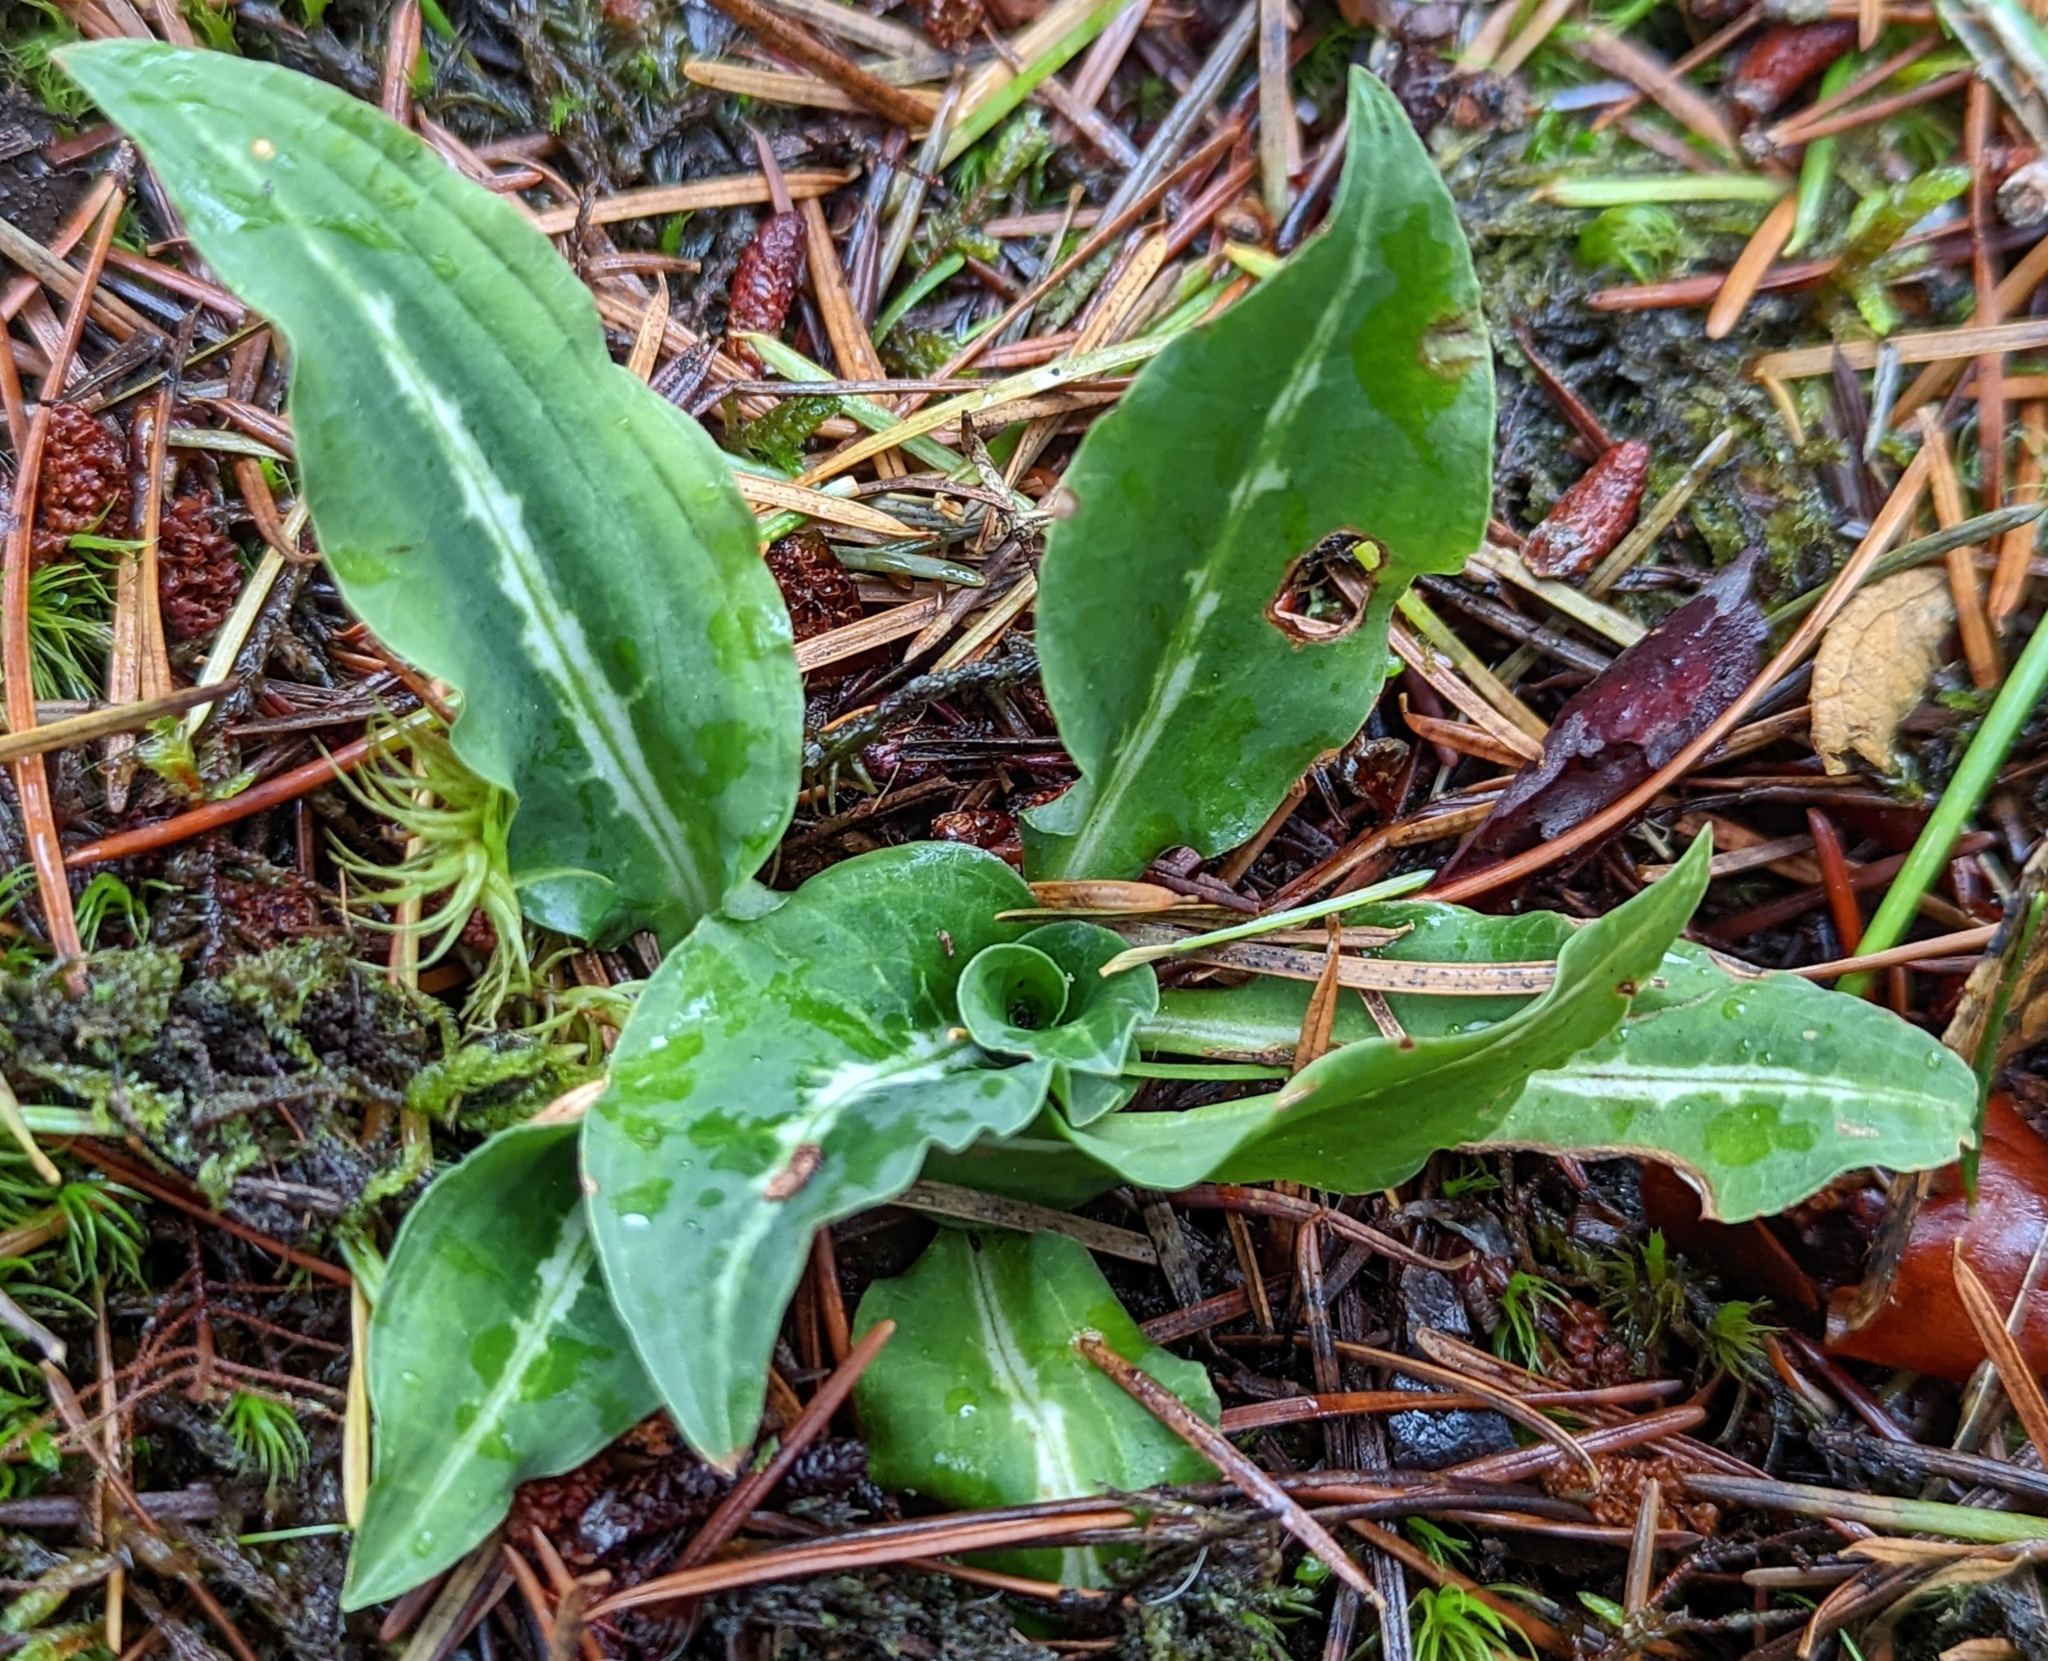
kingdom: Plantae
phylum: Tracheophyta
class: Liliopsida
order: Asparagales
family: Orchidaceae
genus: Goodyera
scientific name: Goodyera oblongifolia
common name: Giant rattlesnake-plantain
